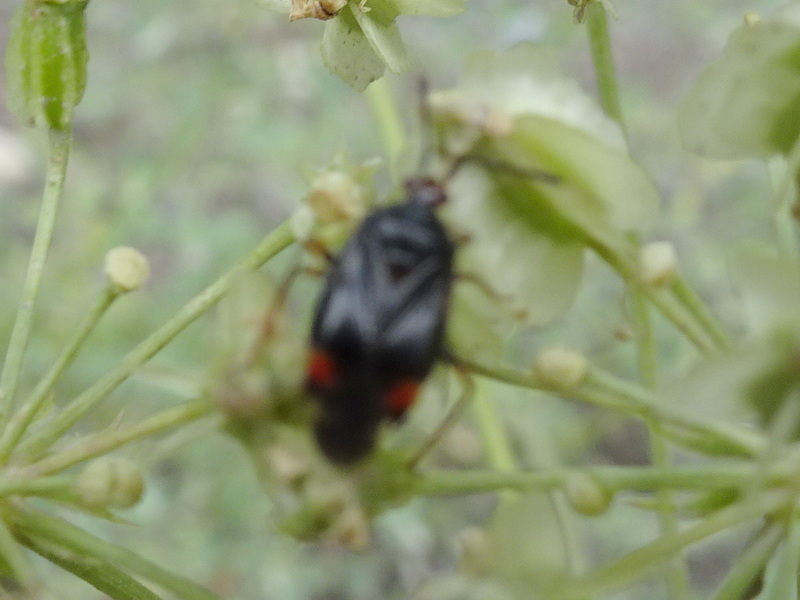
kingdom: Animalia
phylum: Arthropoda
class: Insecta
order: Hemiptera
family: Miridae
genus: Deraeocoris
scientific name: Deraeocoris ruber
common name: Plant bug
